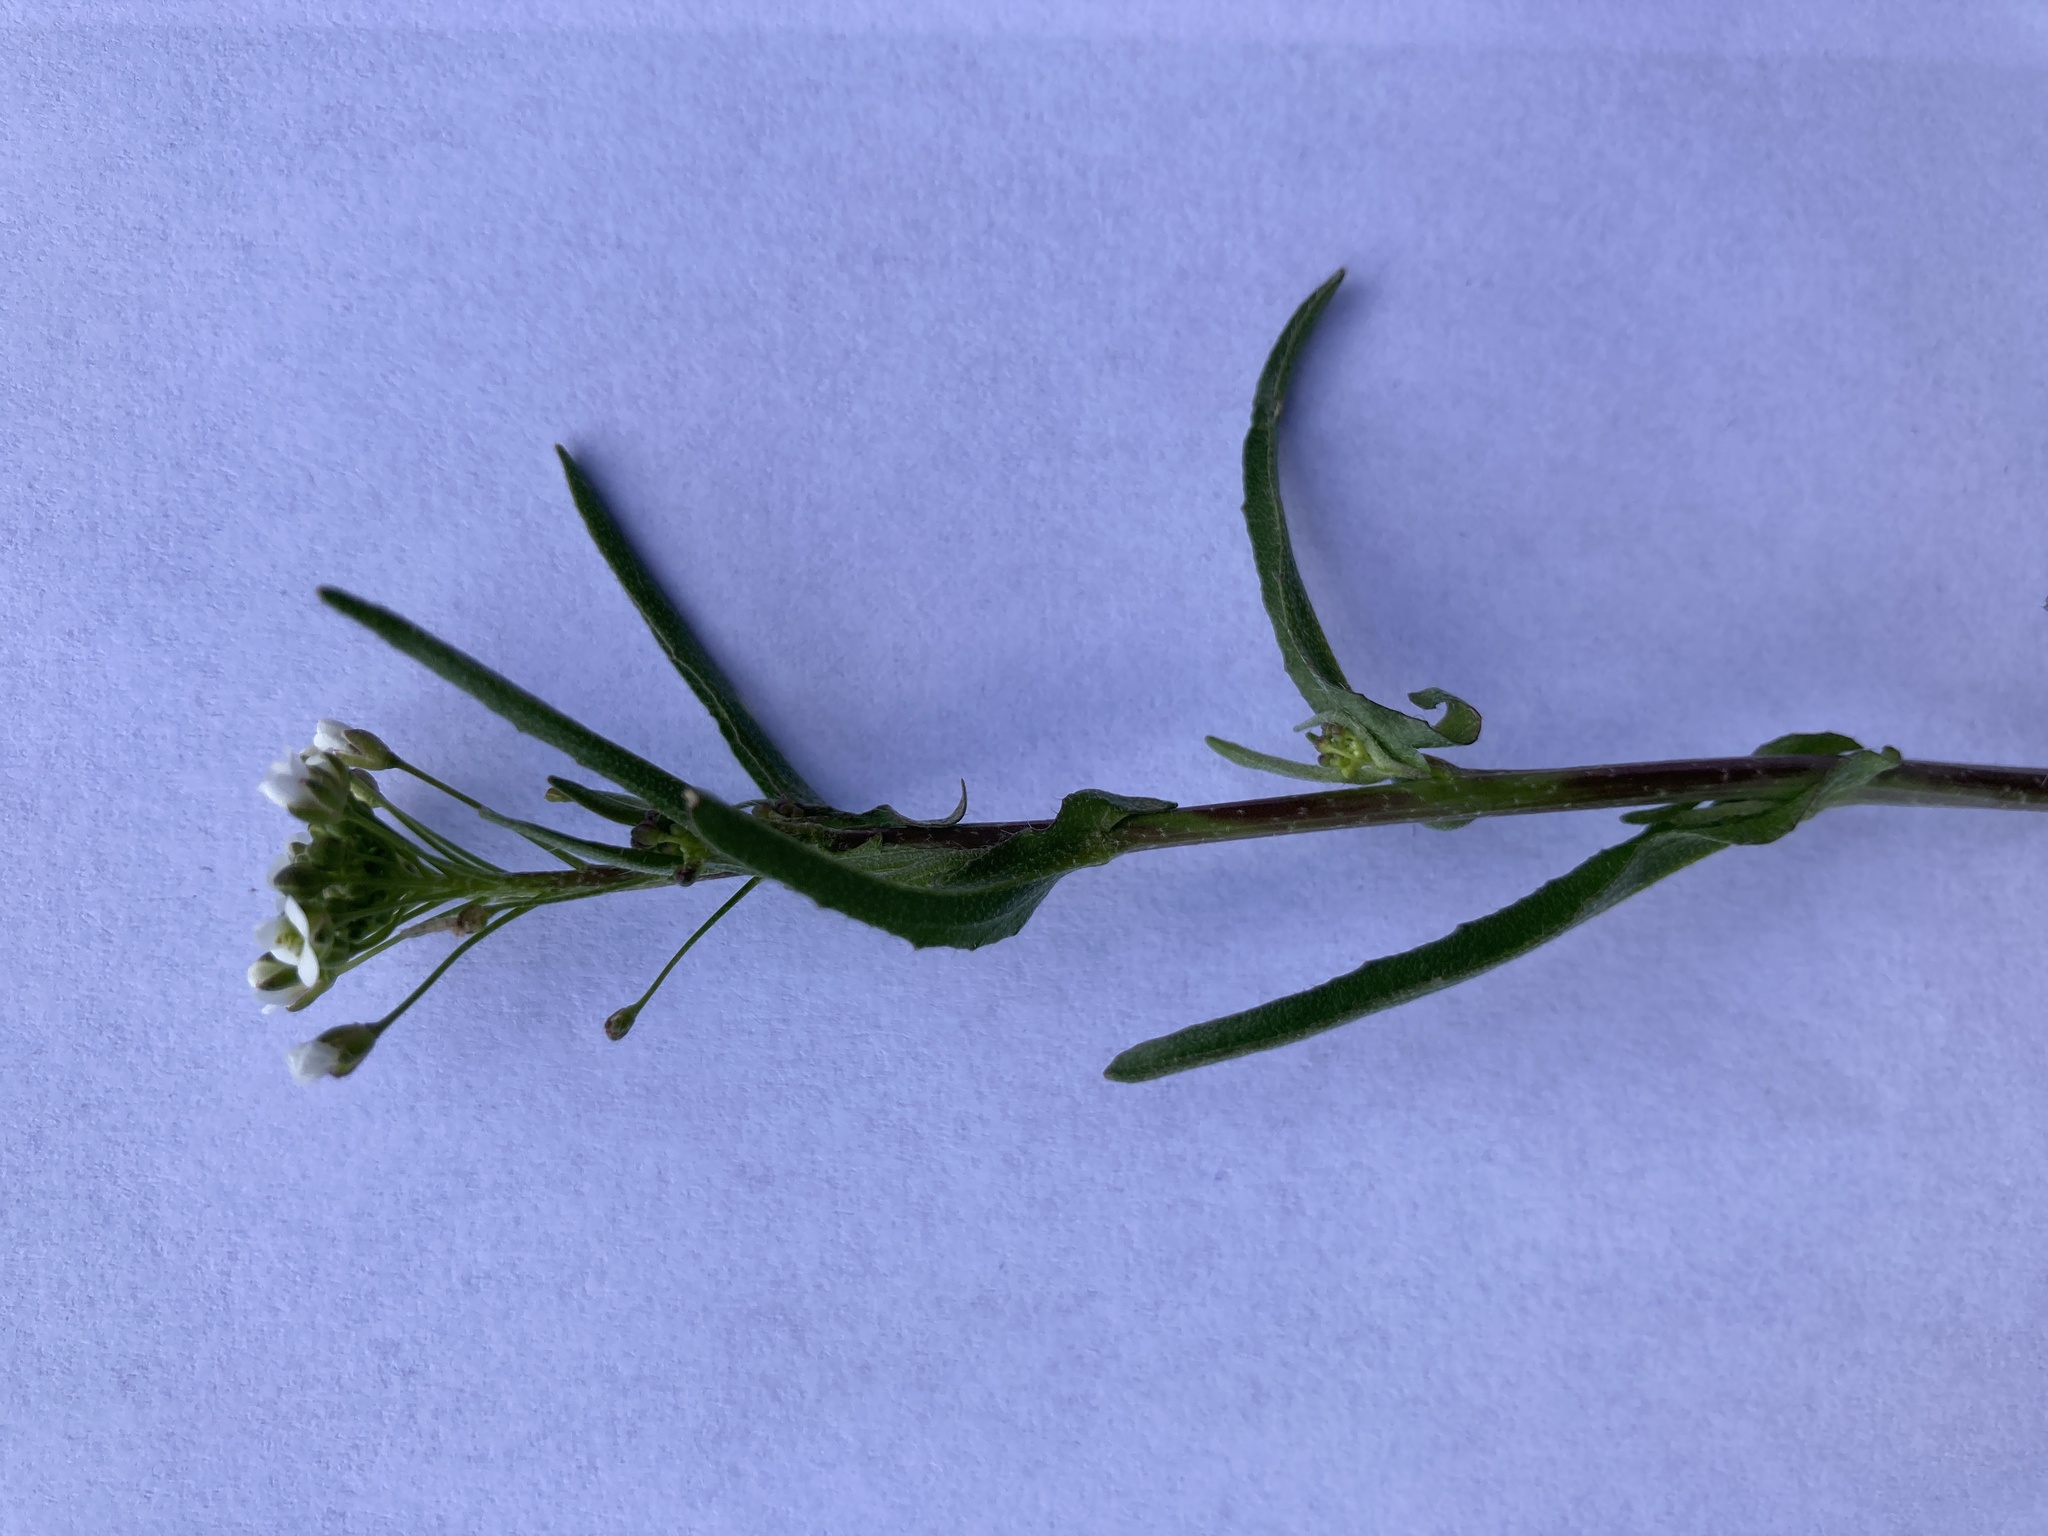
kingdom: Plantae
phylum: Tracheophyta
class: Magnoliopsida
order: Brassicales
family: Brassicaceae
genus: Capsella
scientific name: Capsella bursa-pastoris
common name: Shepherd's purse
